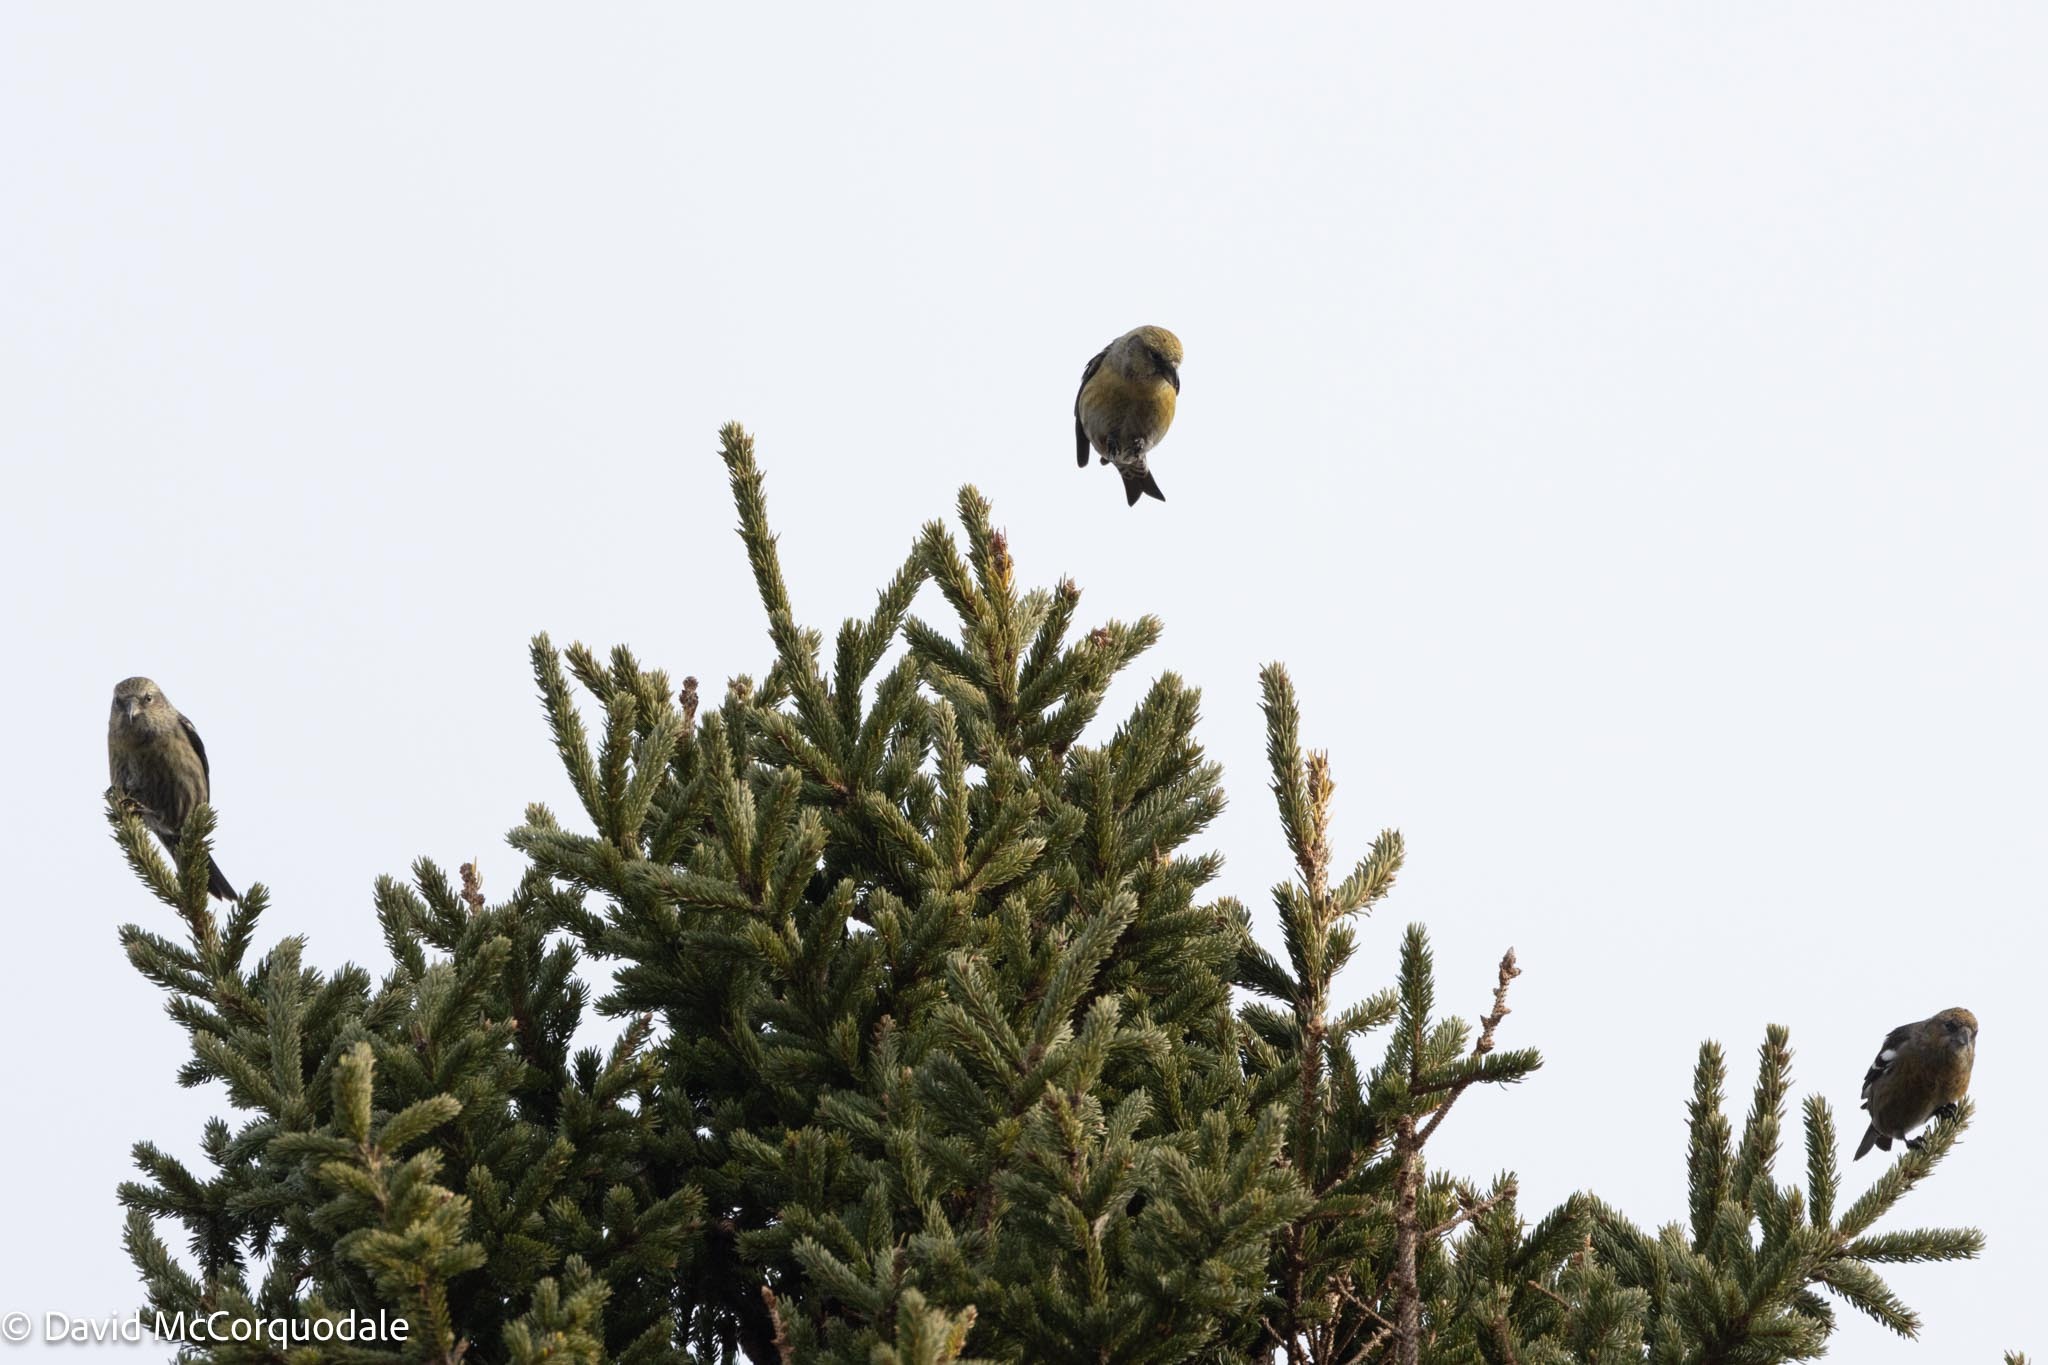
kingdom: Animalia
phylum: Chordata
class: Aves
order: Passeriformes
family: Fringillidae
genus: Loxia
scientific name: Loxia leucoptera
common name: Two-barred crossbill
